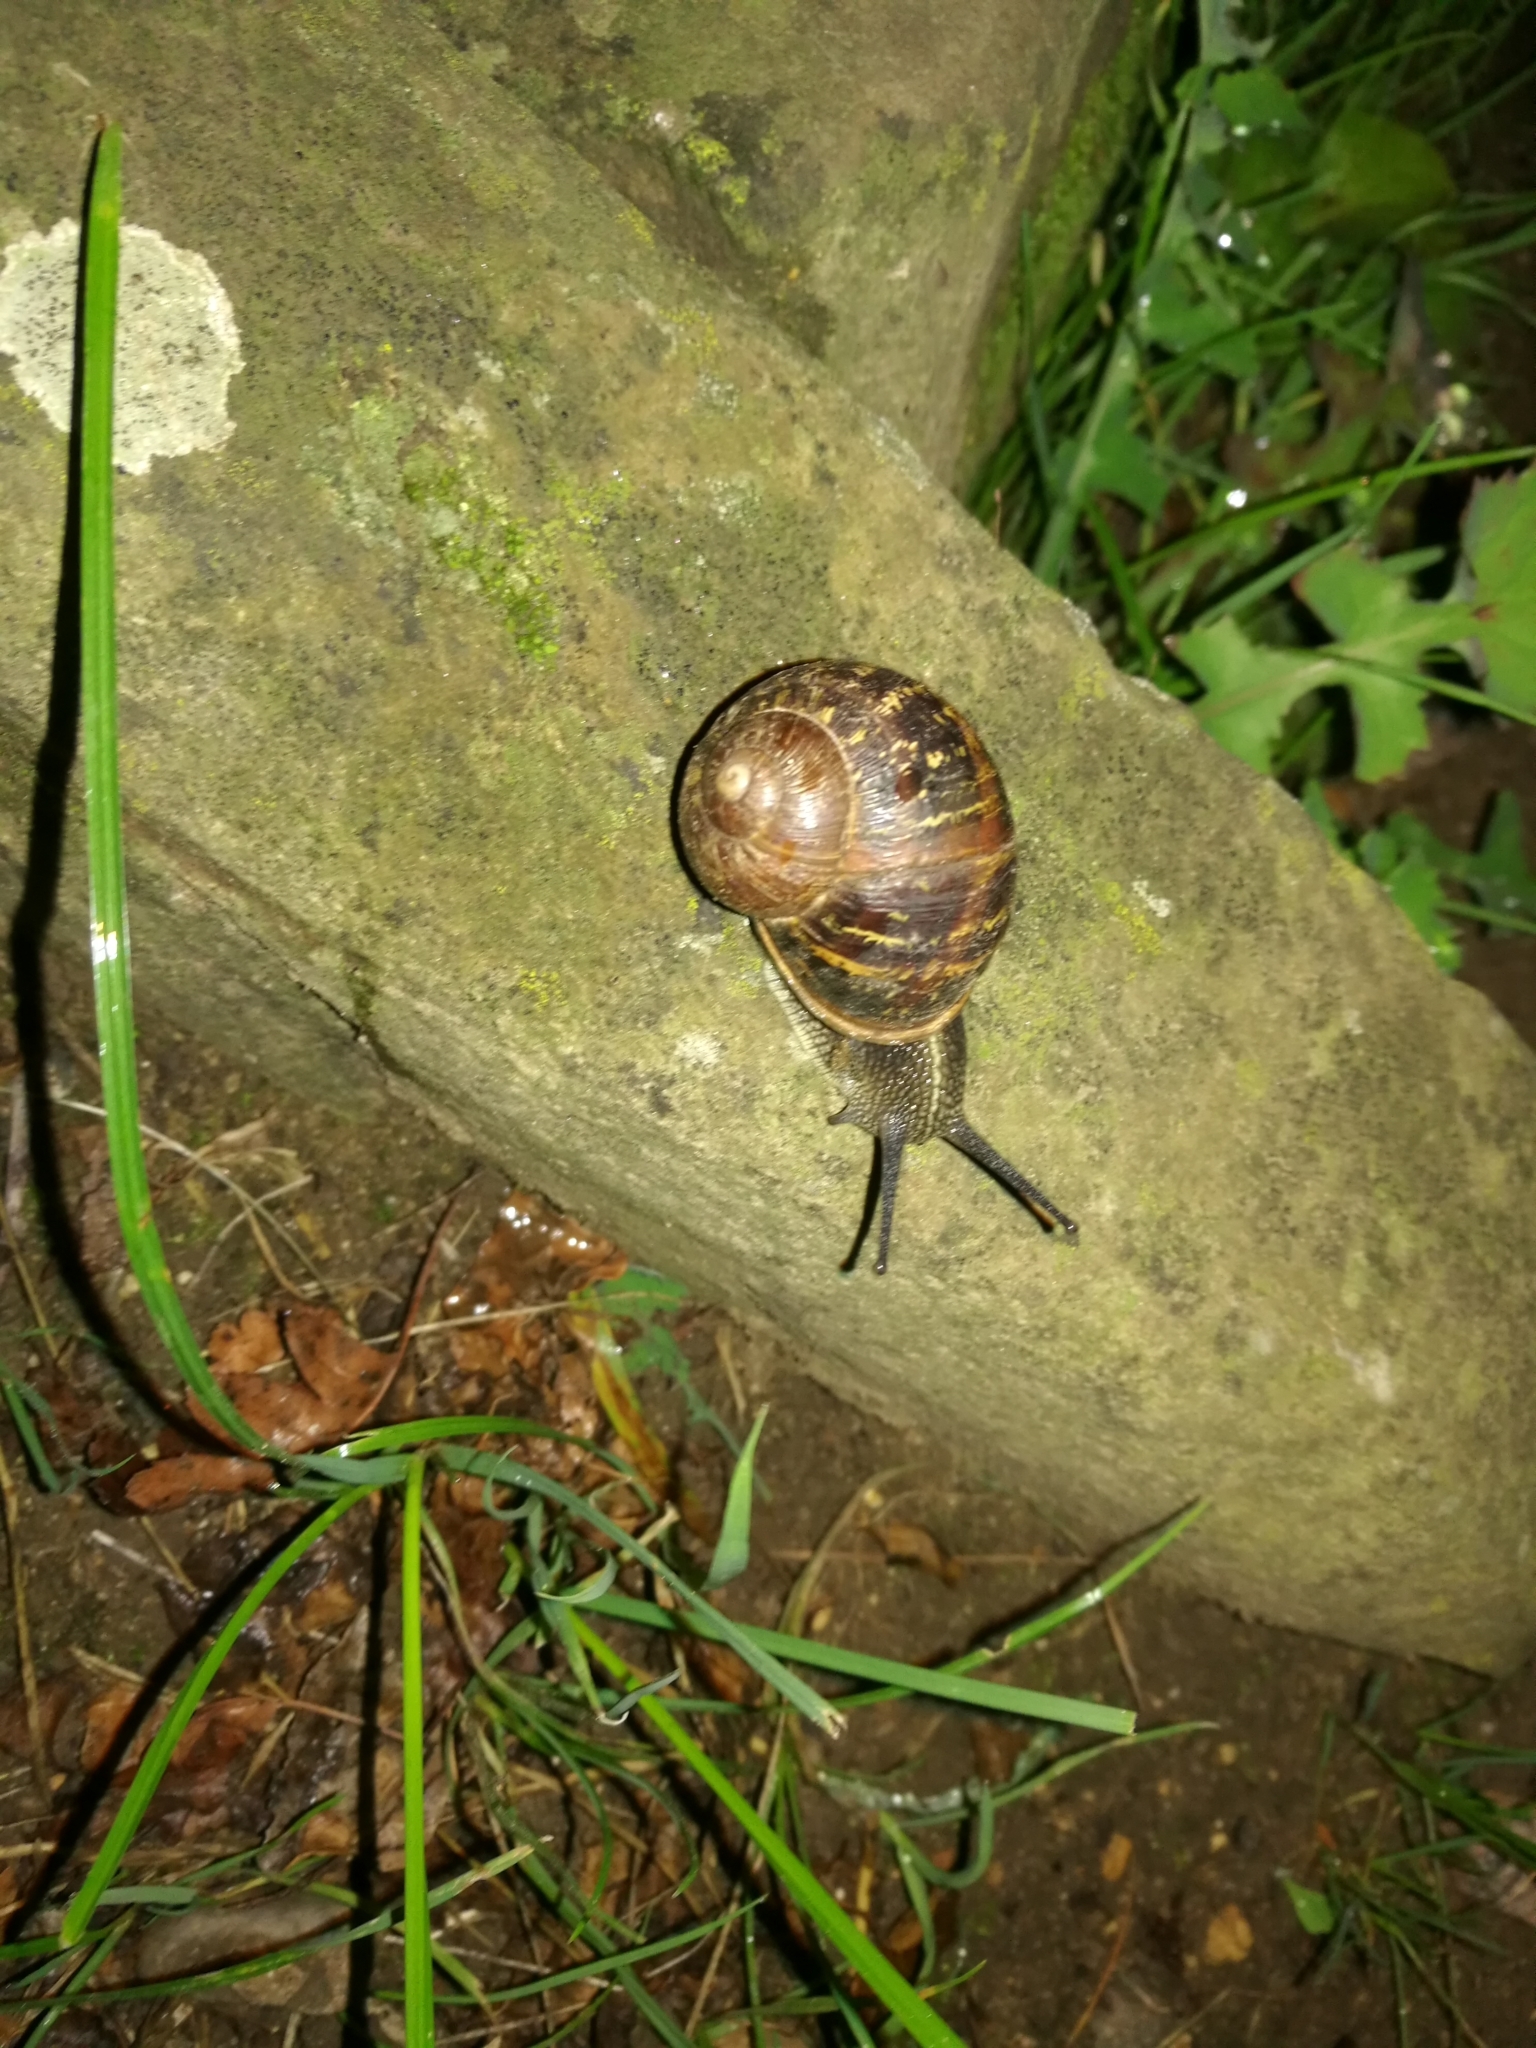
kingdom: Animalia
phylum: Mollusca
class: Gastropoda
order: Stylommatophora
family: Helicidae
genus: Cornu
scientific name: Cornu aspersum
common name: Brown garden snail
